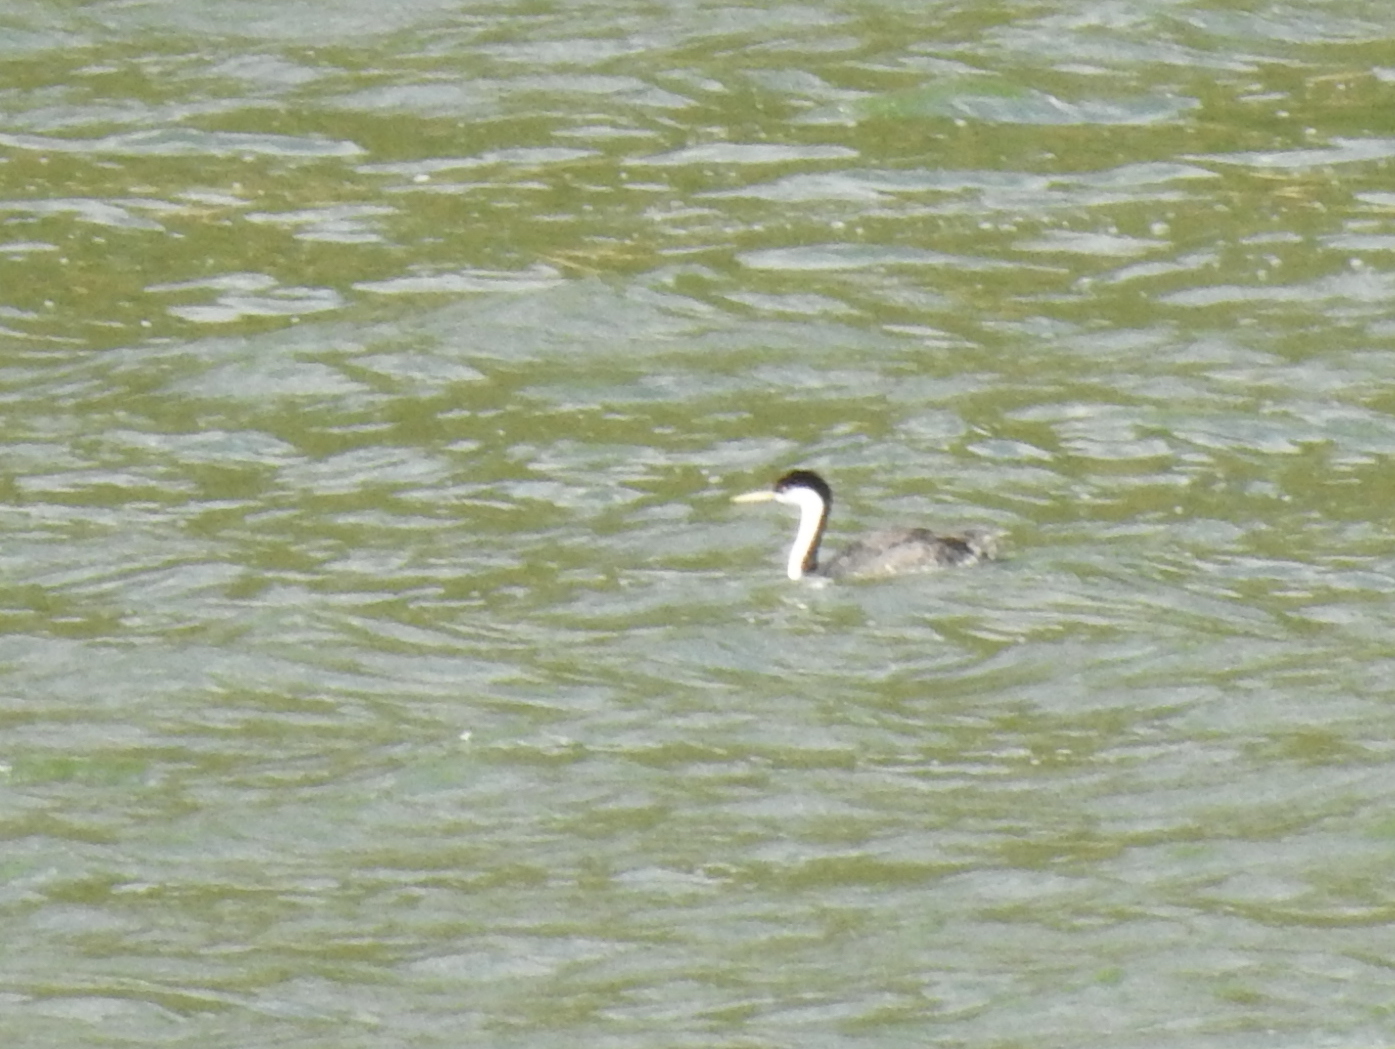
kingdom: Animalia
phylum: Chordata
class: Aves
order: Podicipediformes
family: Podicipedidae
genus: Aechmophorus
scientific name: Aechmophorus occidentalis
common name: Western grebe
